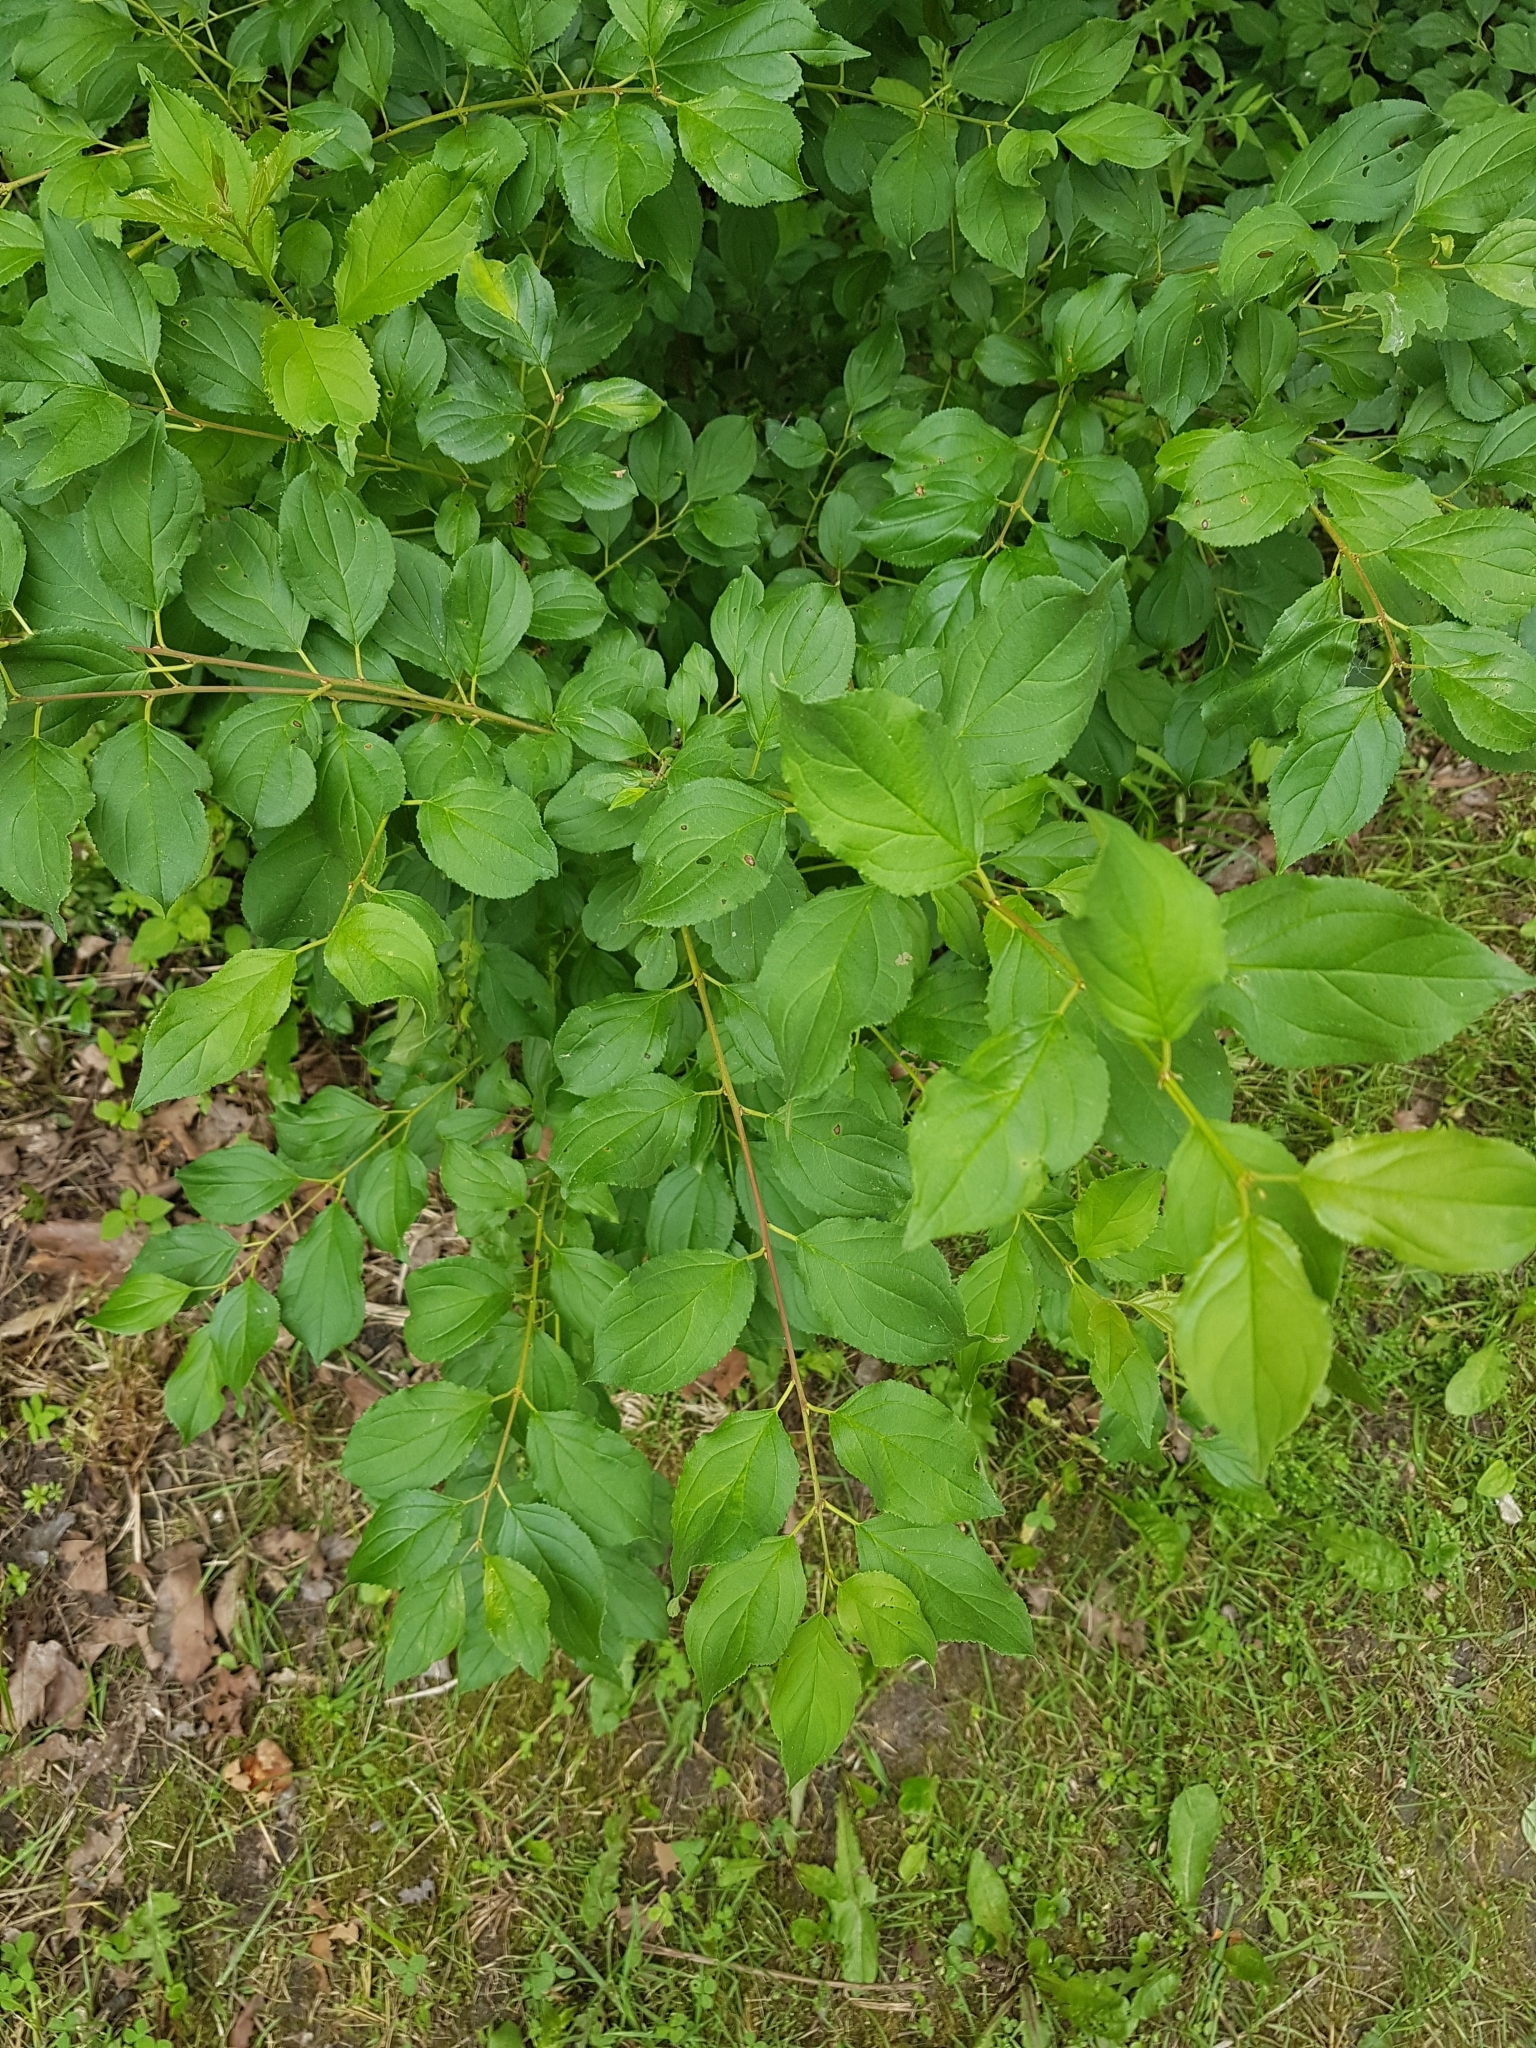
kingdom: Plantae
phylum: Tracheophyta
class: Magnoliopsida
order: Rosales
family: Rhamnaceae
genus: Rhamnus
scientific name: Rhamnus cathartica
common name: Common buckthorn
